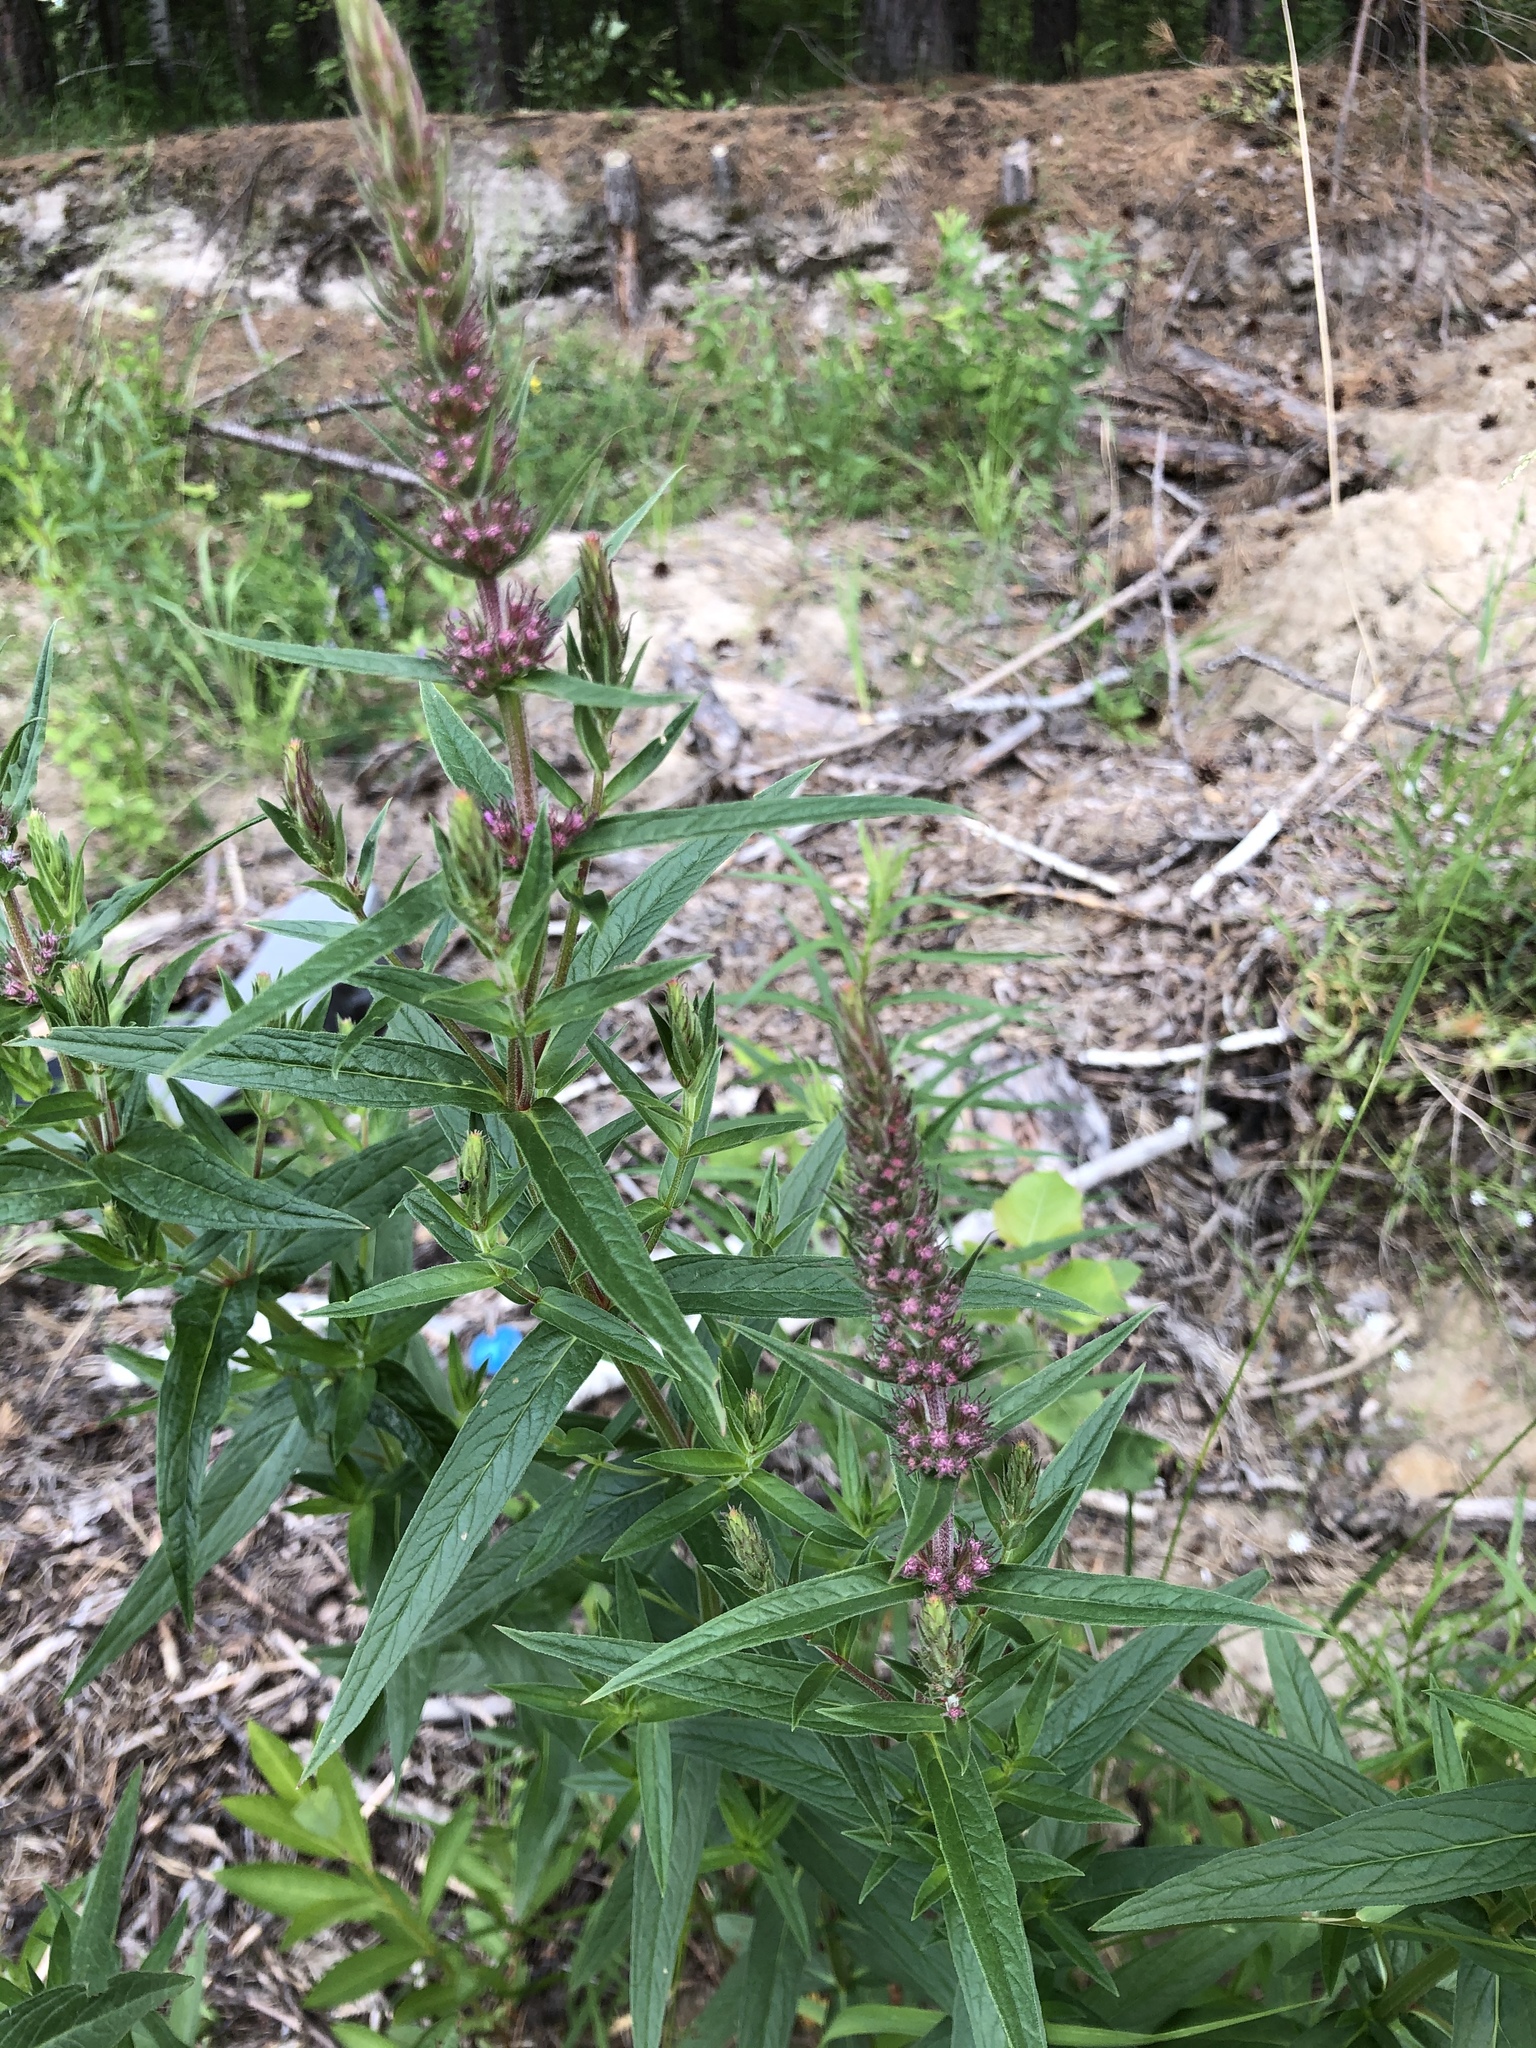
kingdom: Plantae
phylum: Tracheophyta
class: Magnoliopsida
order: Myrtales
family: Lythraceae
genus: Lythrum
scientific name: Lythrum salicaria
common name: Purple loosestrife
